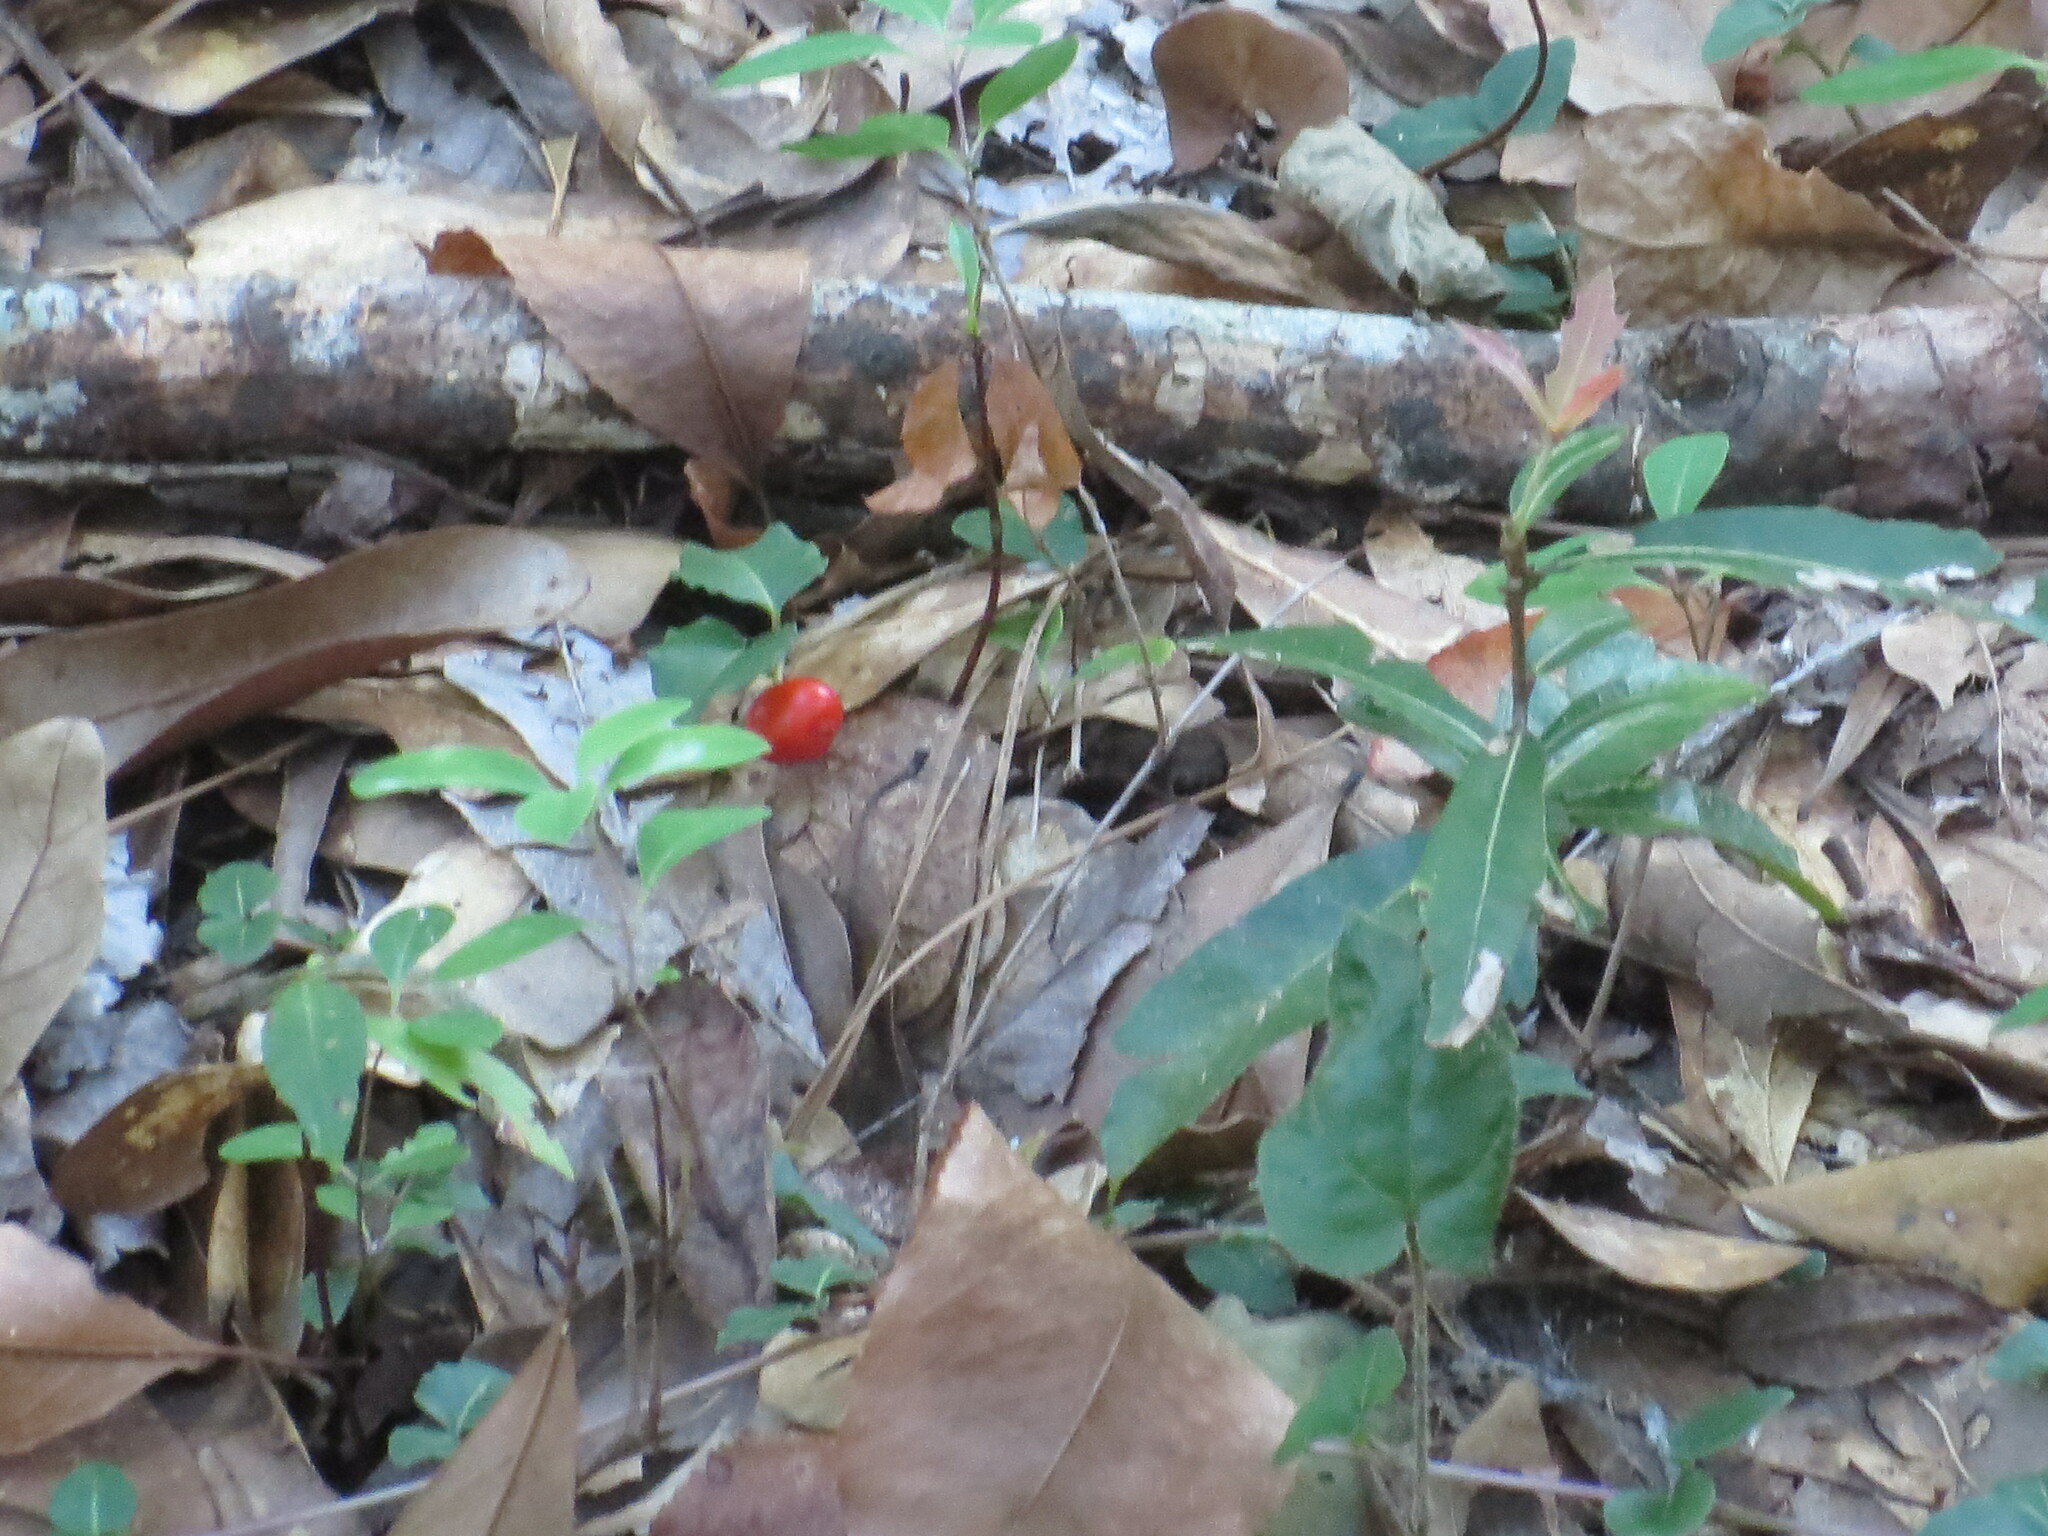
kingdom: Plantae
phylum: Tracheophyta
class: Magnoliopsida
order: Gentianales
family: Rubiaceae
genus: Mitchella
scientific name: Mitchella repens
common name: Partridge-berry
